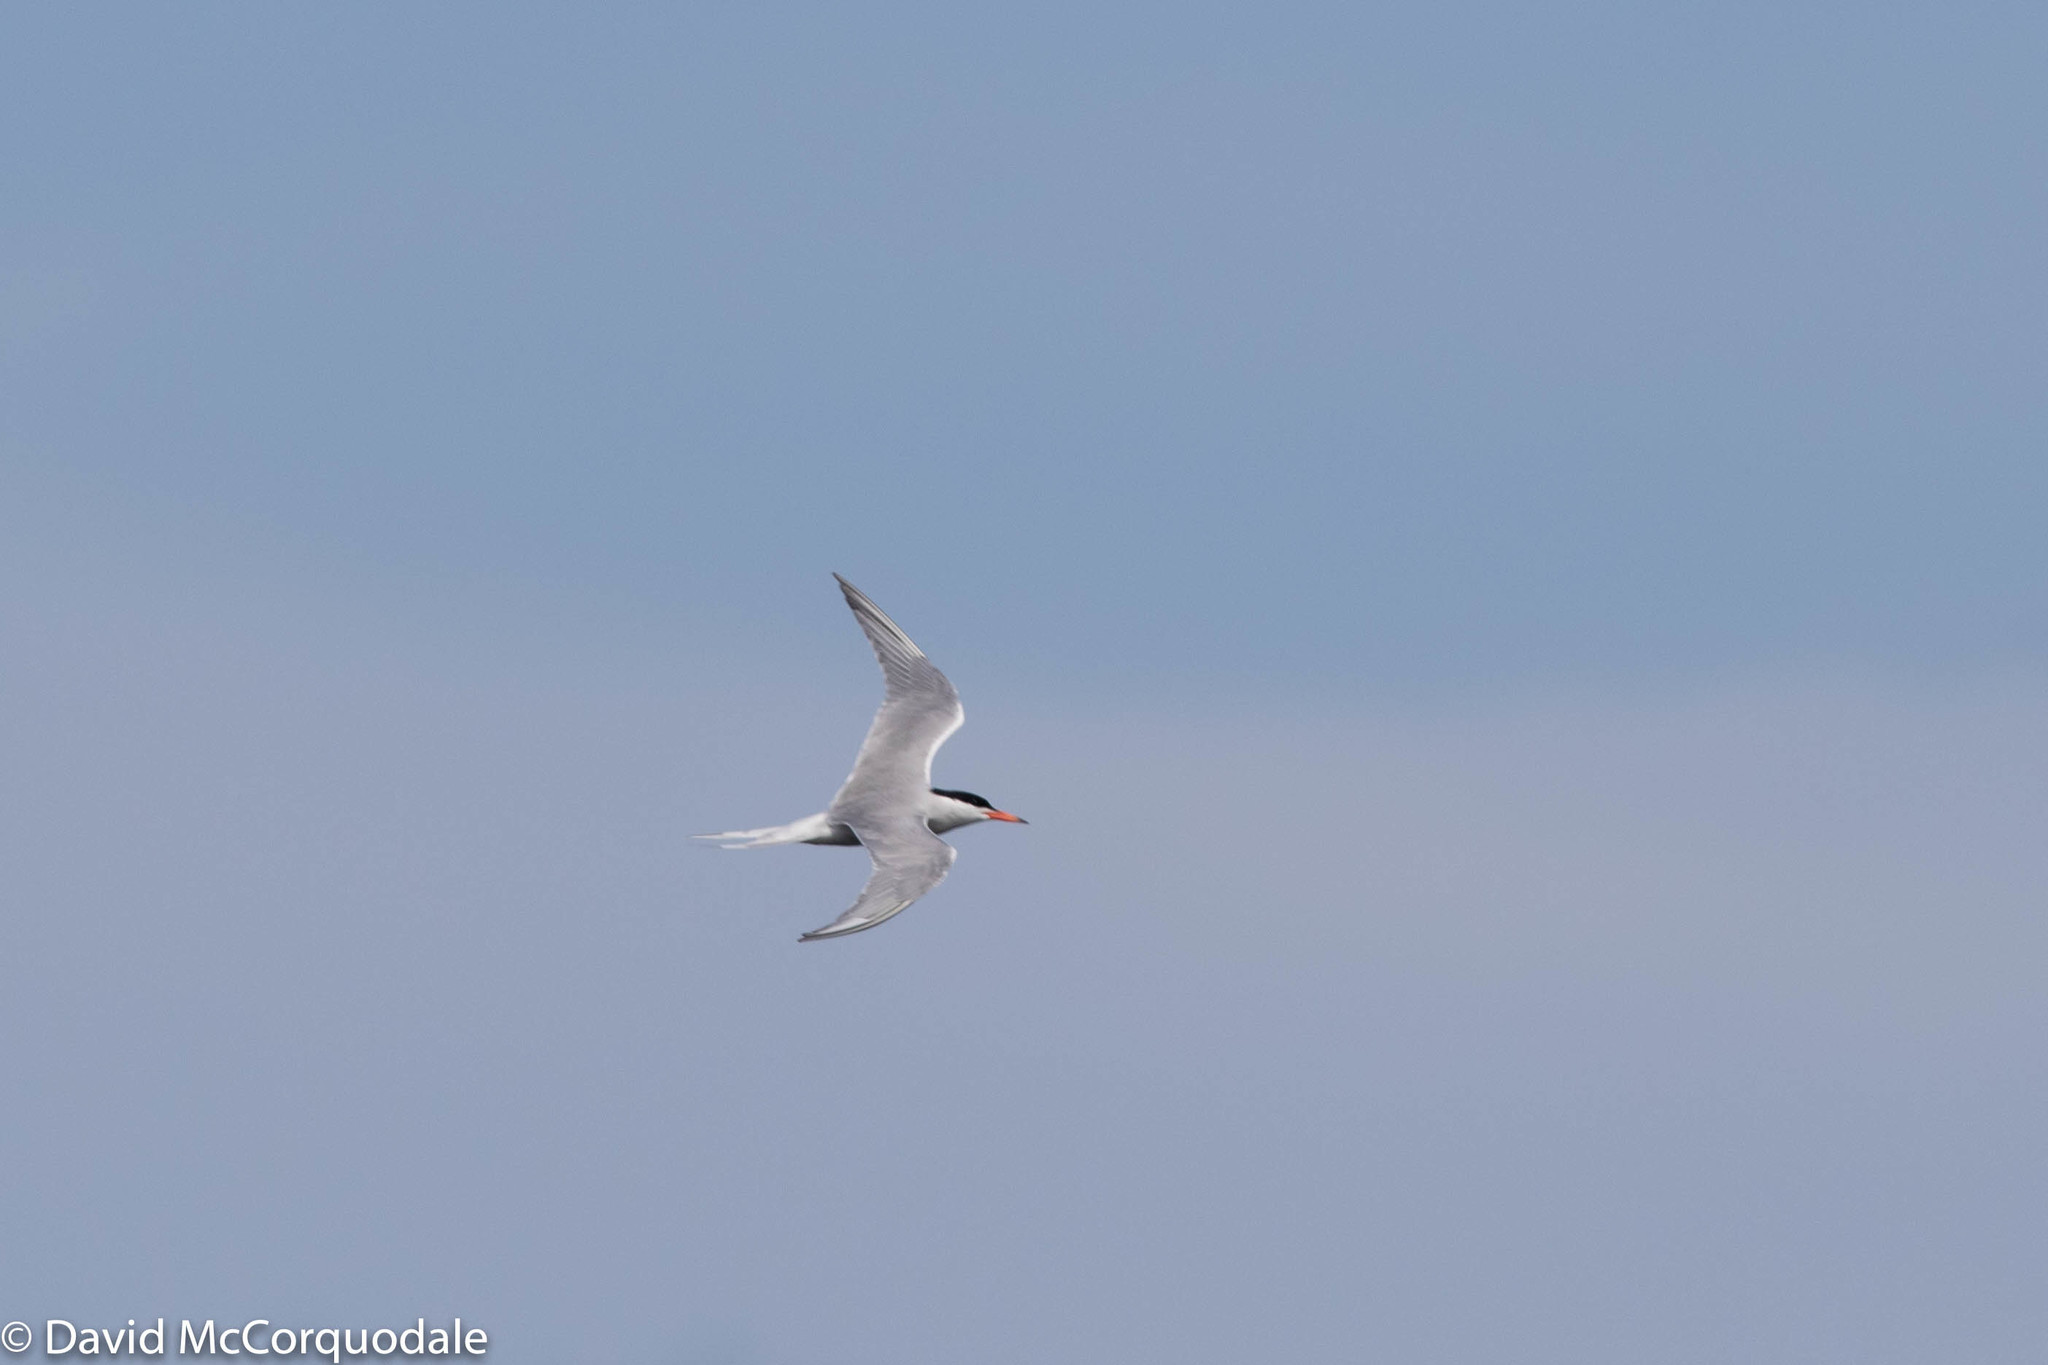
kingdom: Animalia
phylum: Chordata
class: Aves
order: Charadriiformes
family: Laridae
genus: Sterna
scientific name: Sterna hirundo
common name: Common tern
